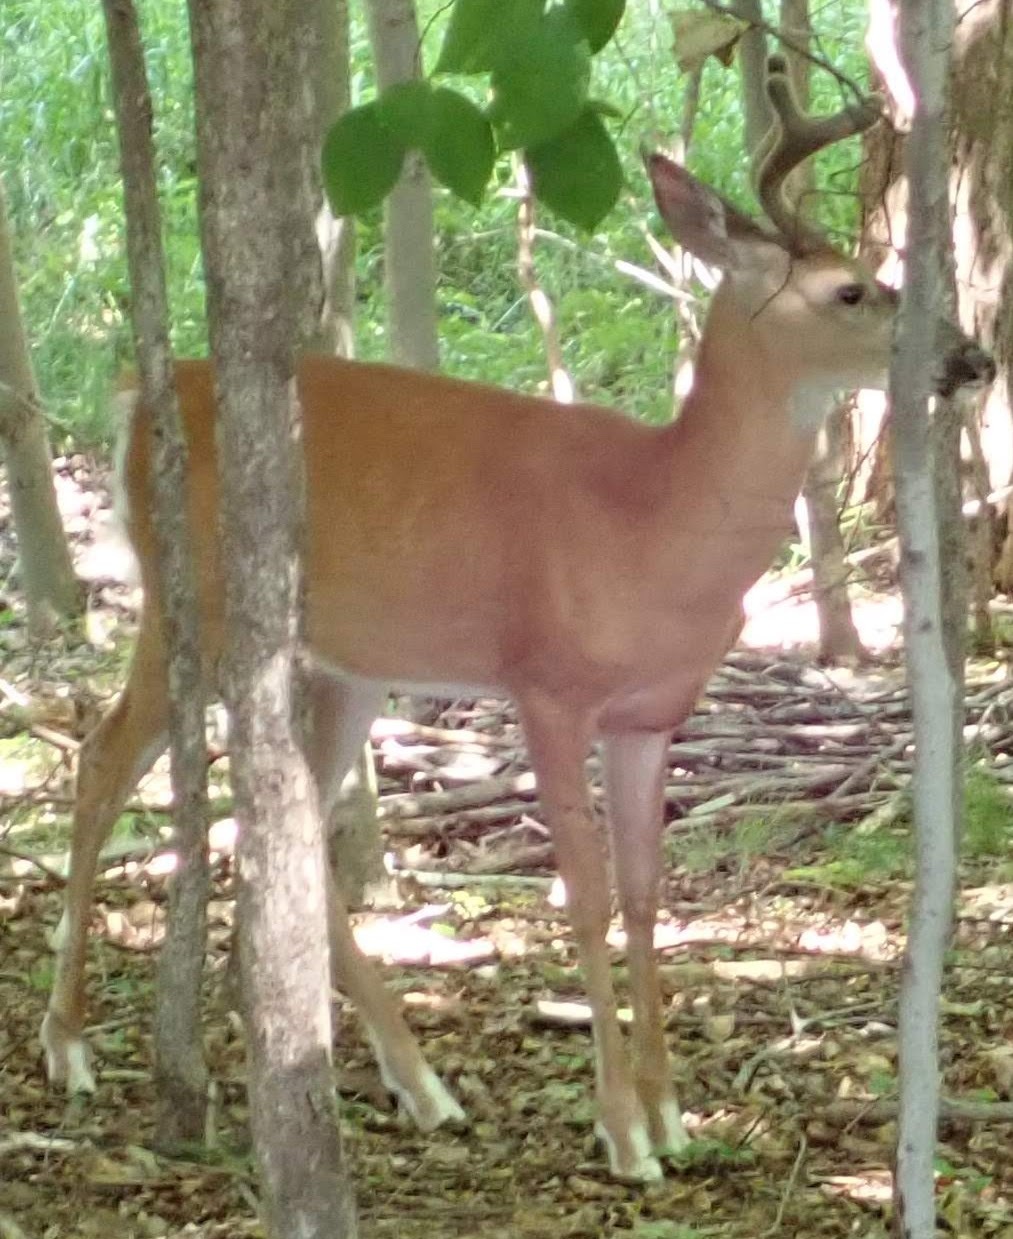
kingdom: Animalia
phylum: Chordata
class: Mammalia
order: Artiodactyla
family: Cervidae
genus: Odocoileus
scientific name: Odocoileus virginianus
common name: White-tailed deer
